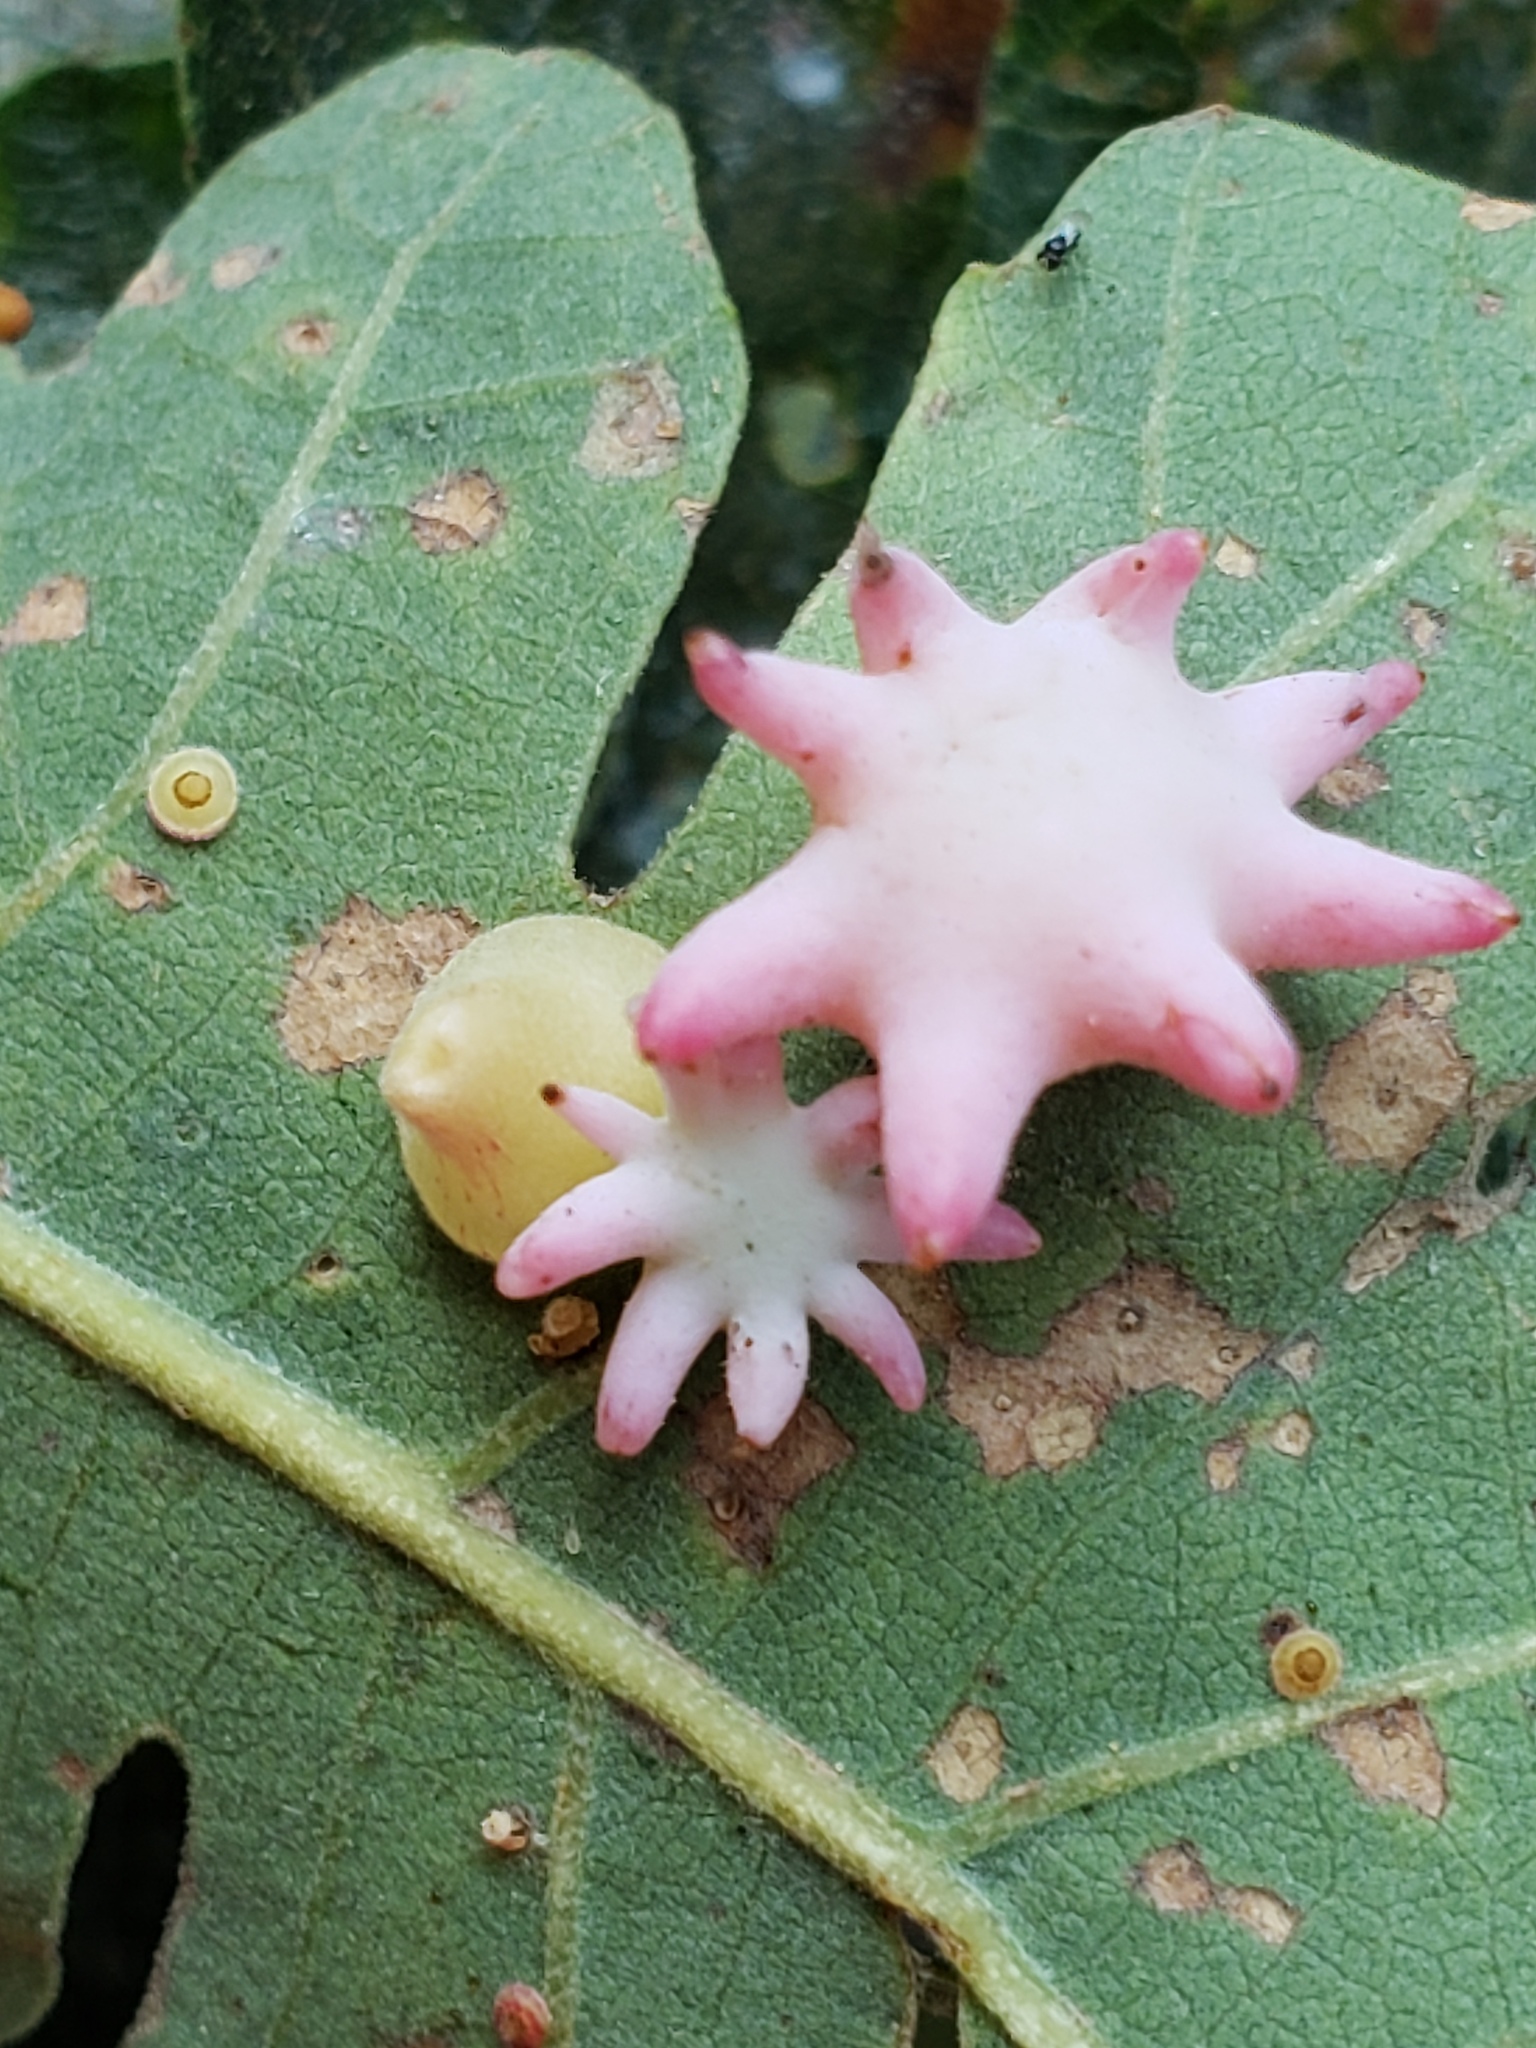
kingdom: Animalia
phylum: Arthropoda
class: Insecta
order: Hymenoptera
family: Cynipidae
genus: Cynips
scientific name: Cynips douglasi
